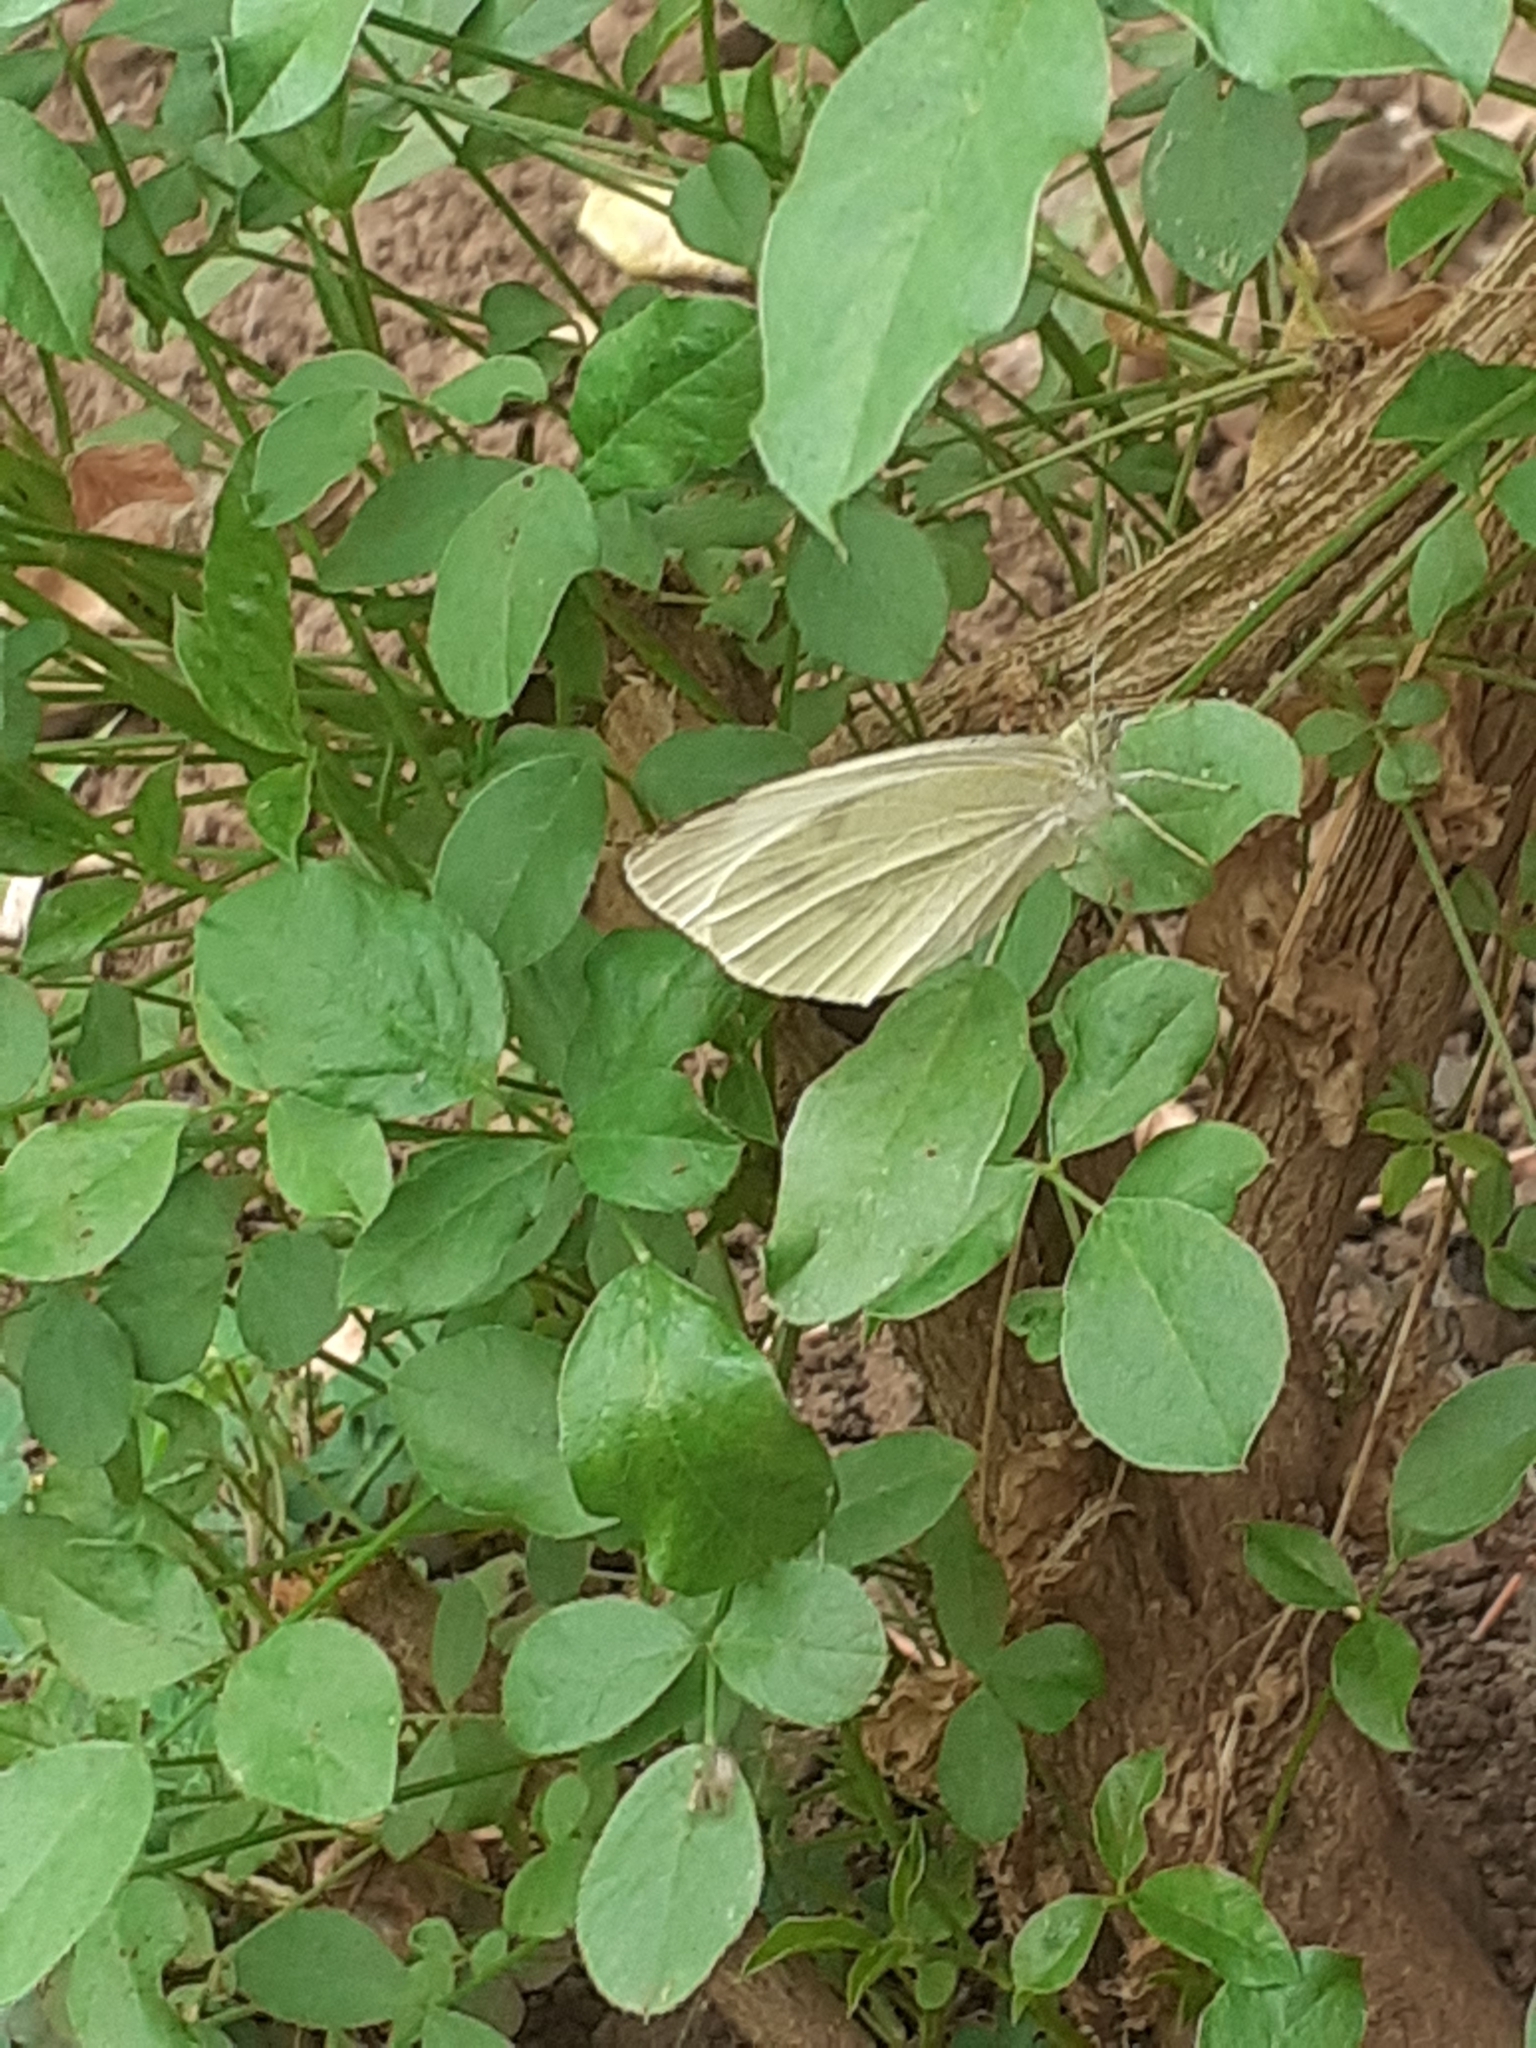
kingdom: Animalia
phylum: Arthropoda
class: Insecta
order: Lepidoptera
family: Pieridae
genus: Pieris
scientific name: Pieris rapae
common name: Small white
